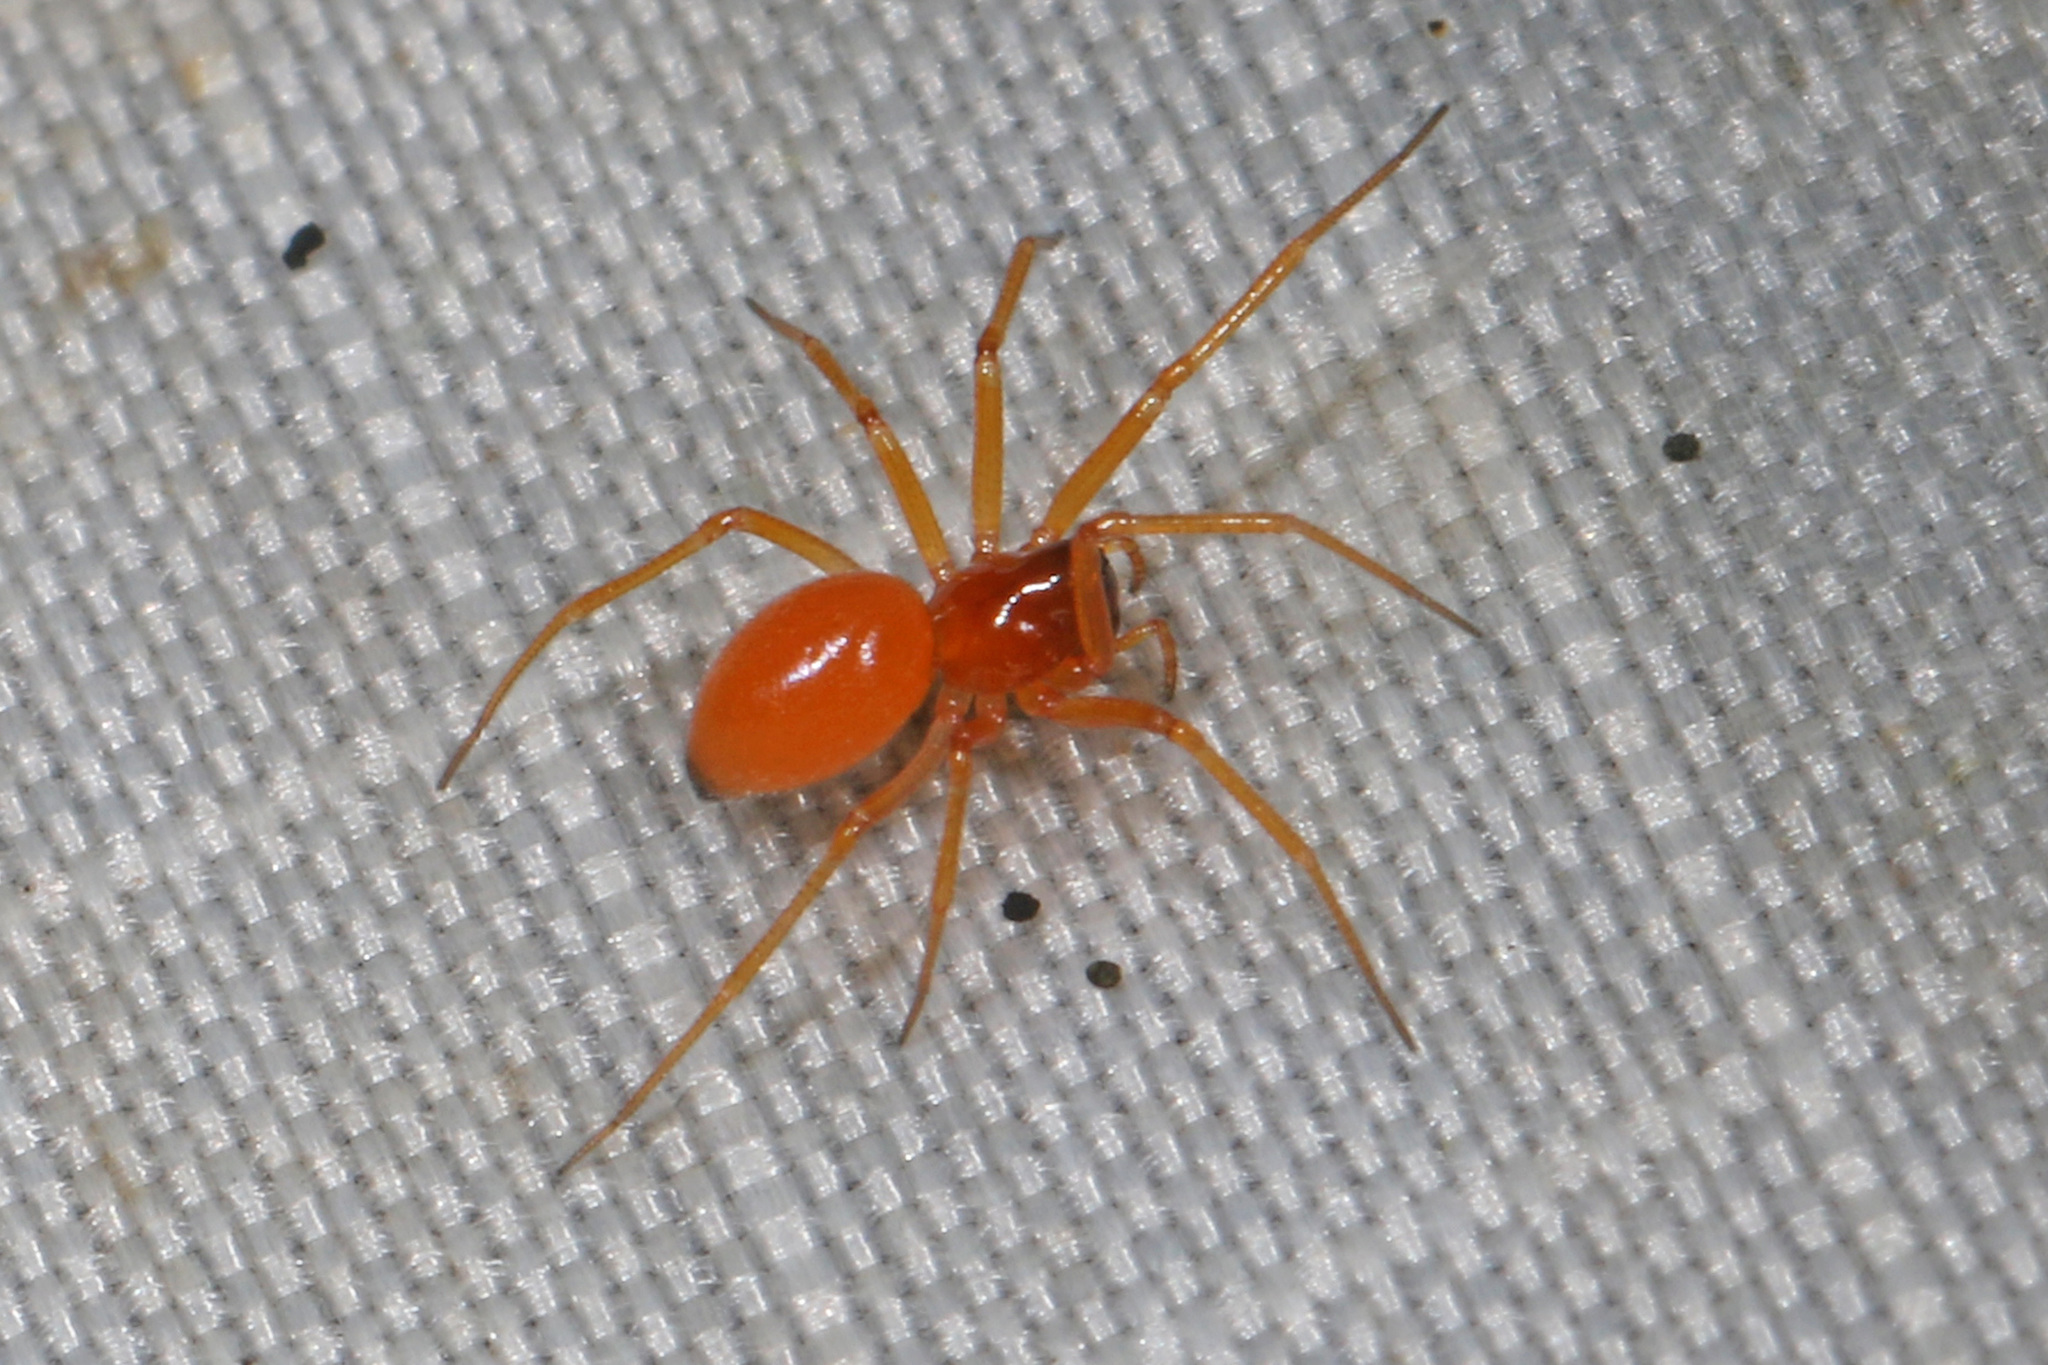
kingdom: Animalia
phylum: Arthropoda
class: Arachnida
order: Araneae
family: Linyphiidae
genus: Florinda
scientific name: Florinda coccinea
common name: Black-tailed red sheetweaver
